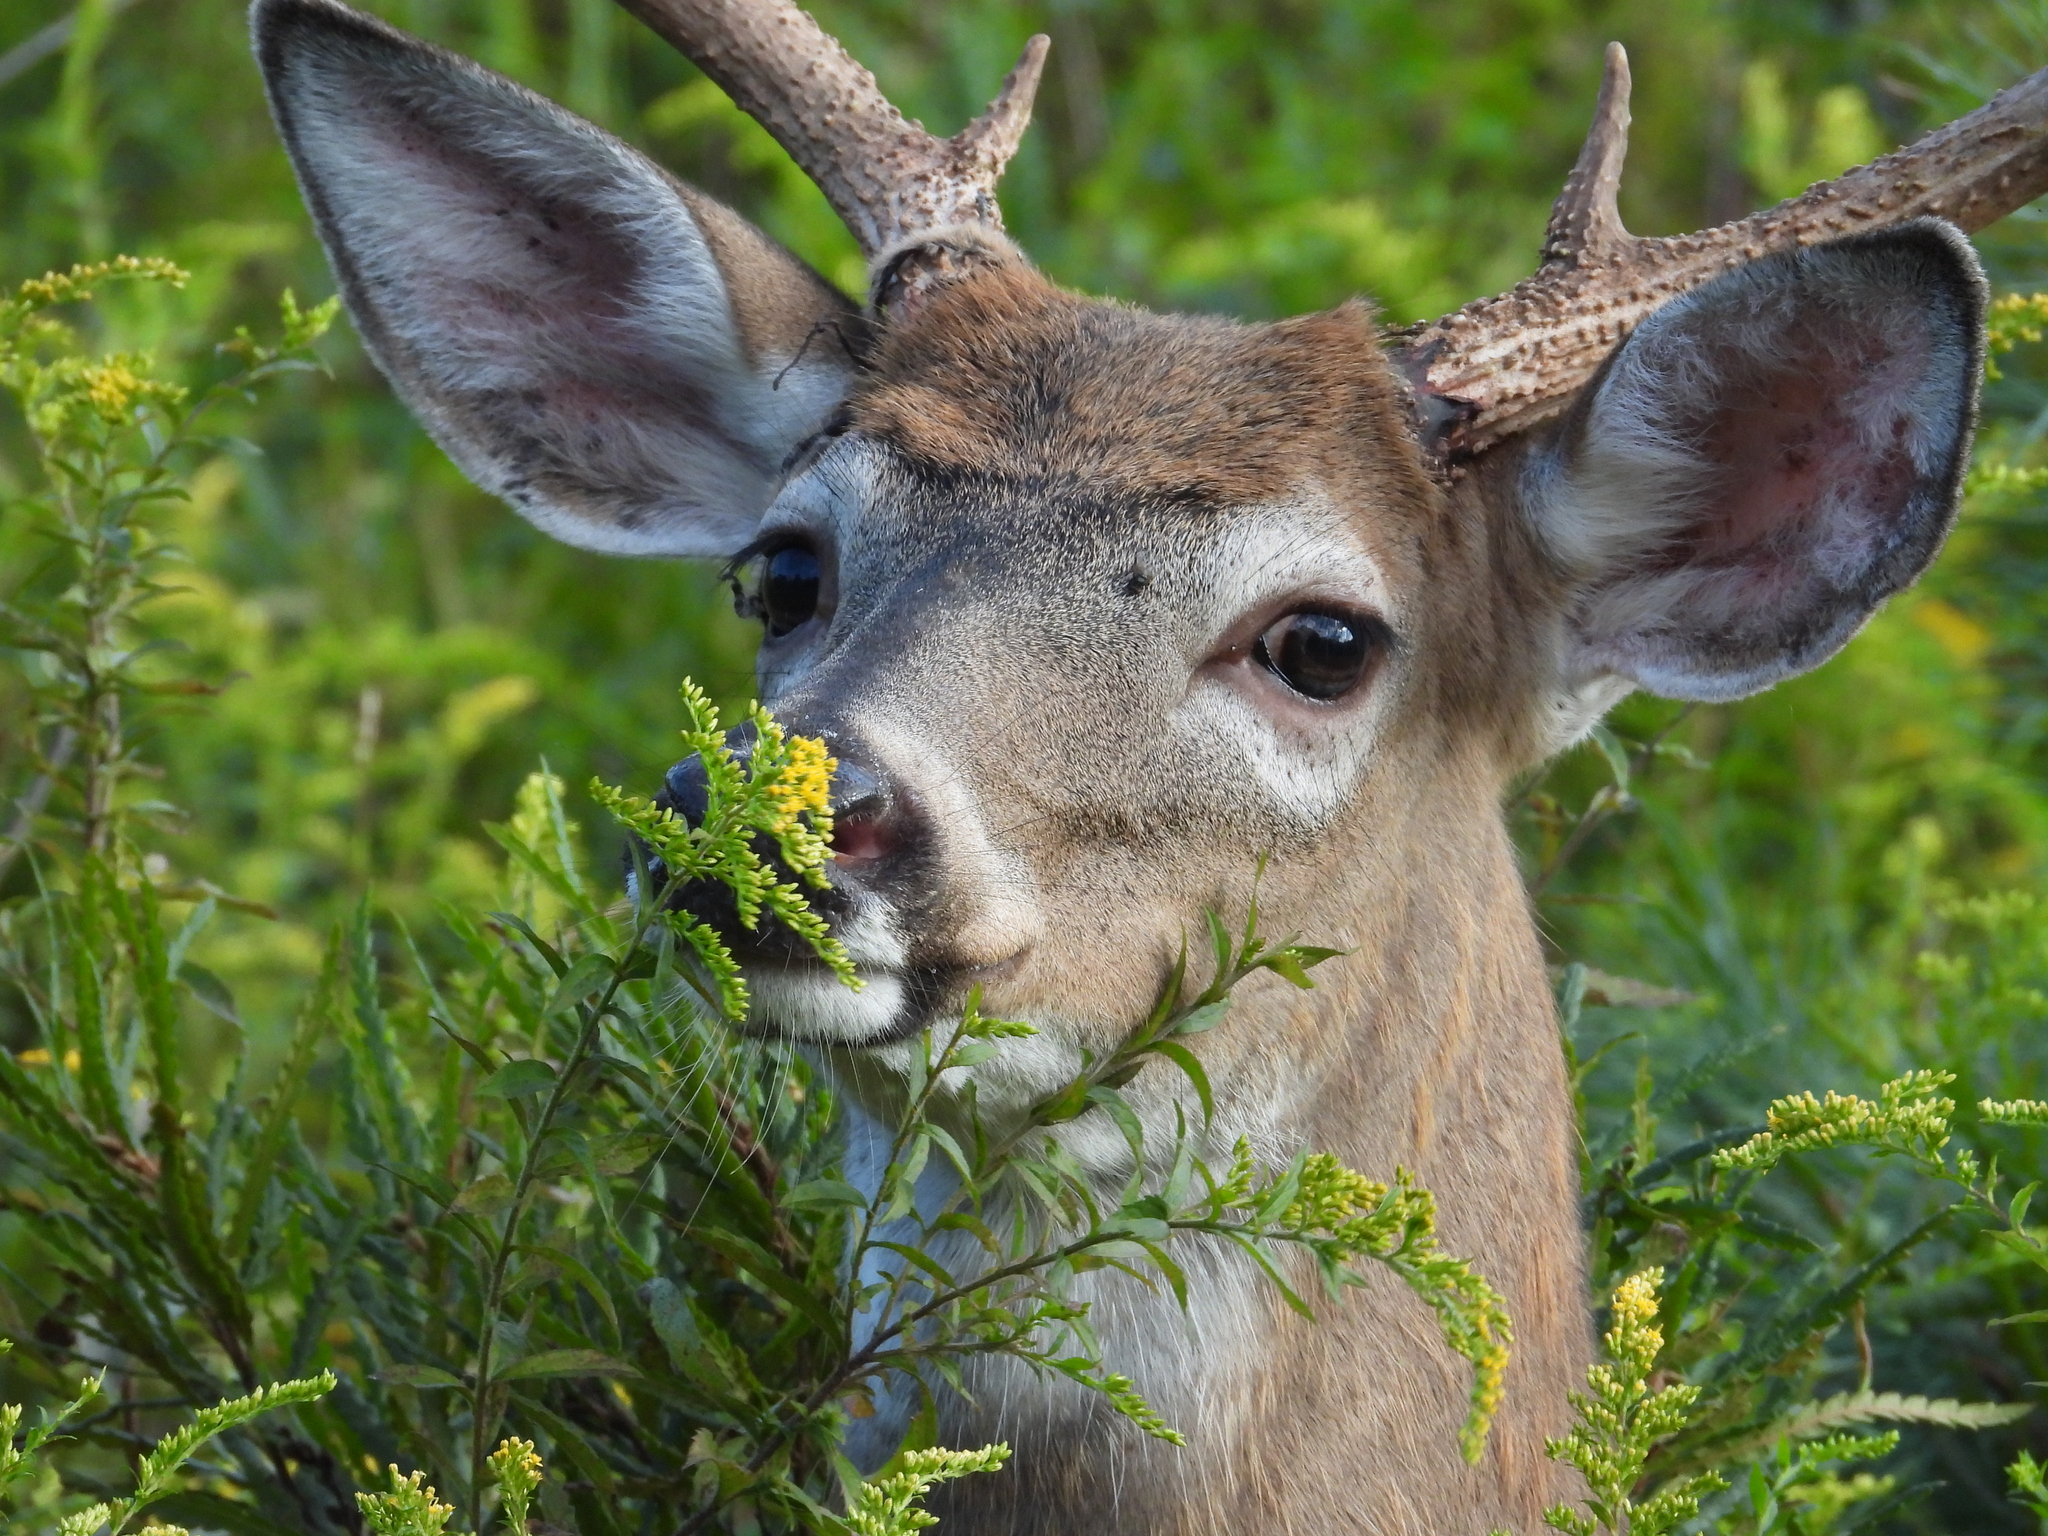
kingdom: Animalia
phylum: Chordata
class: Mammalia
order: Artiodactyla
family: Cervidae
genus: Odocoileus
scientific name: Odocoileus virginianus
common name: White-tailed deer
